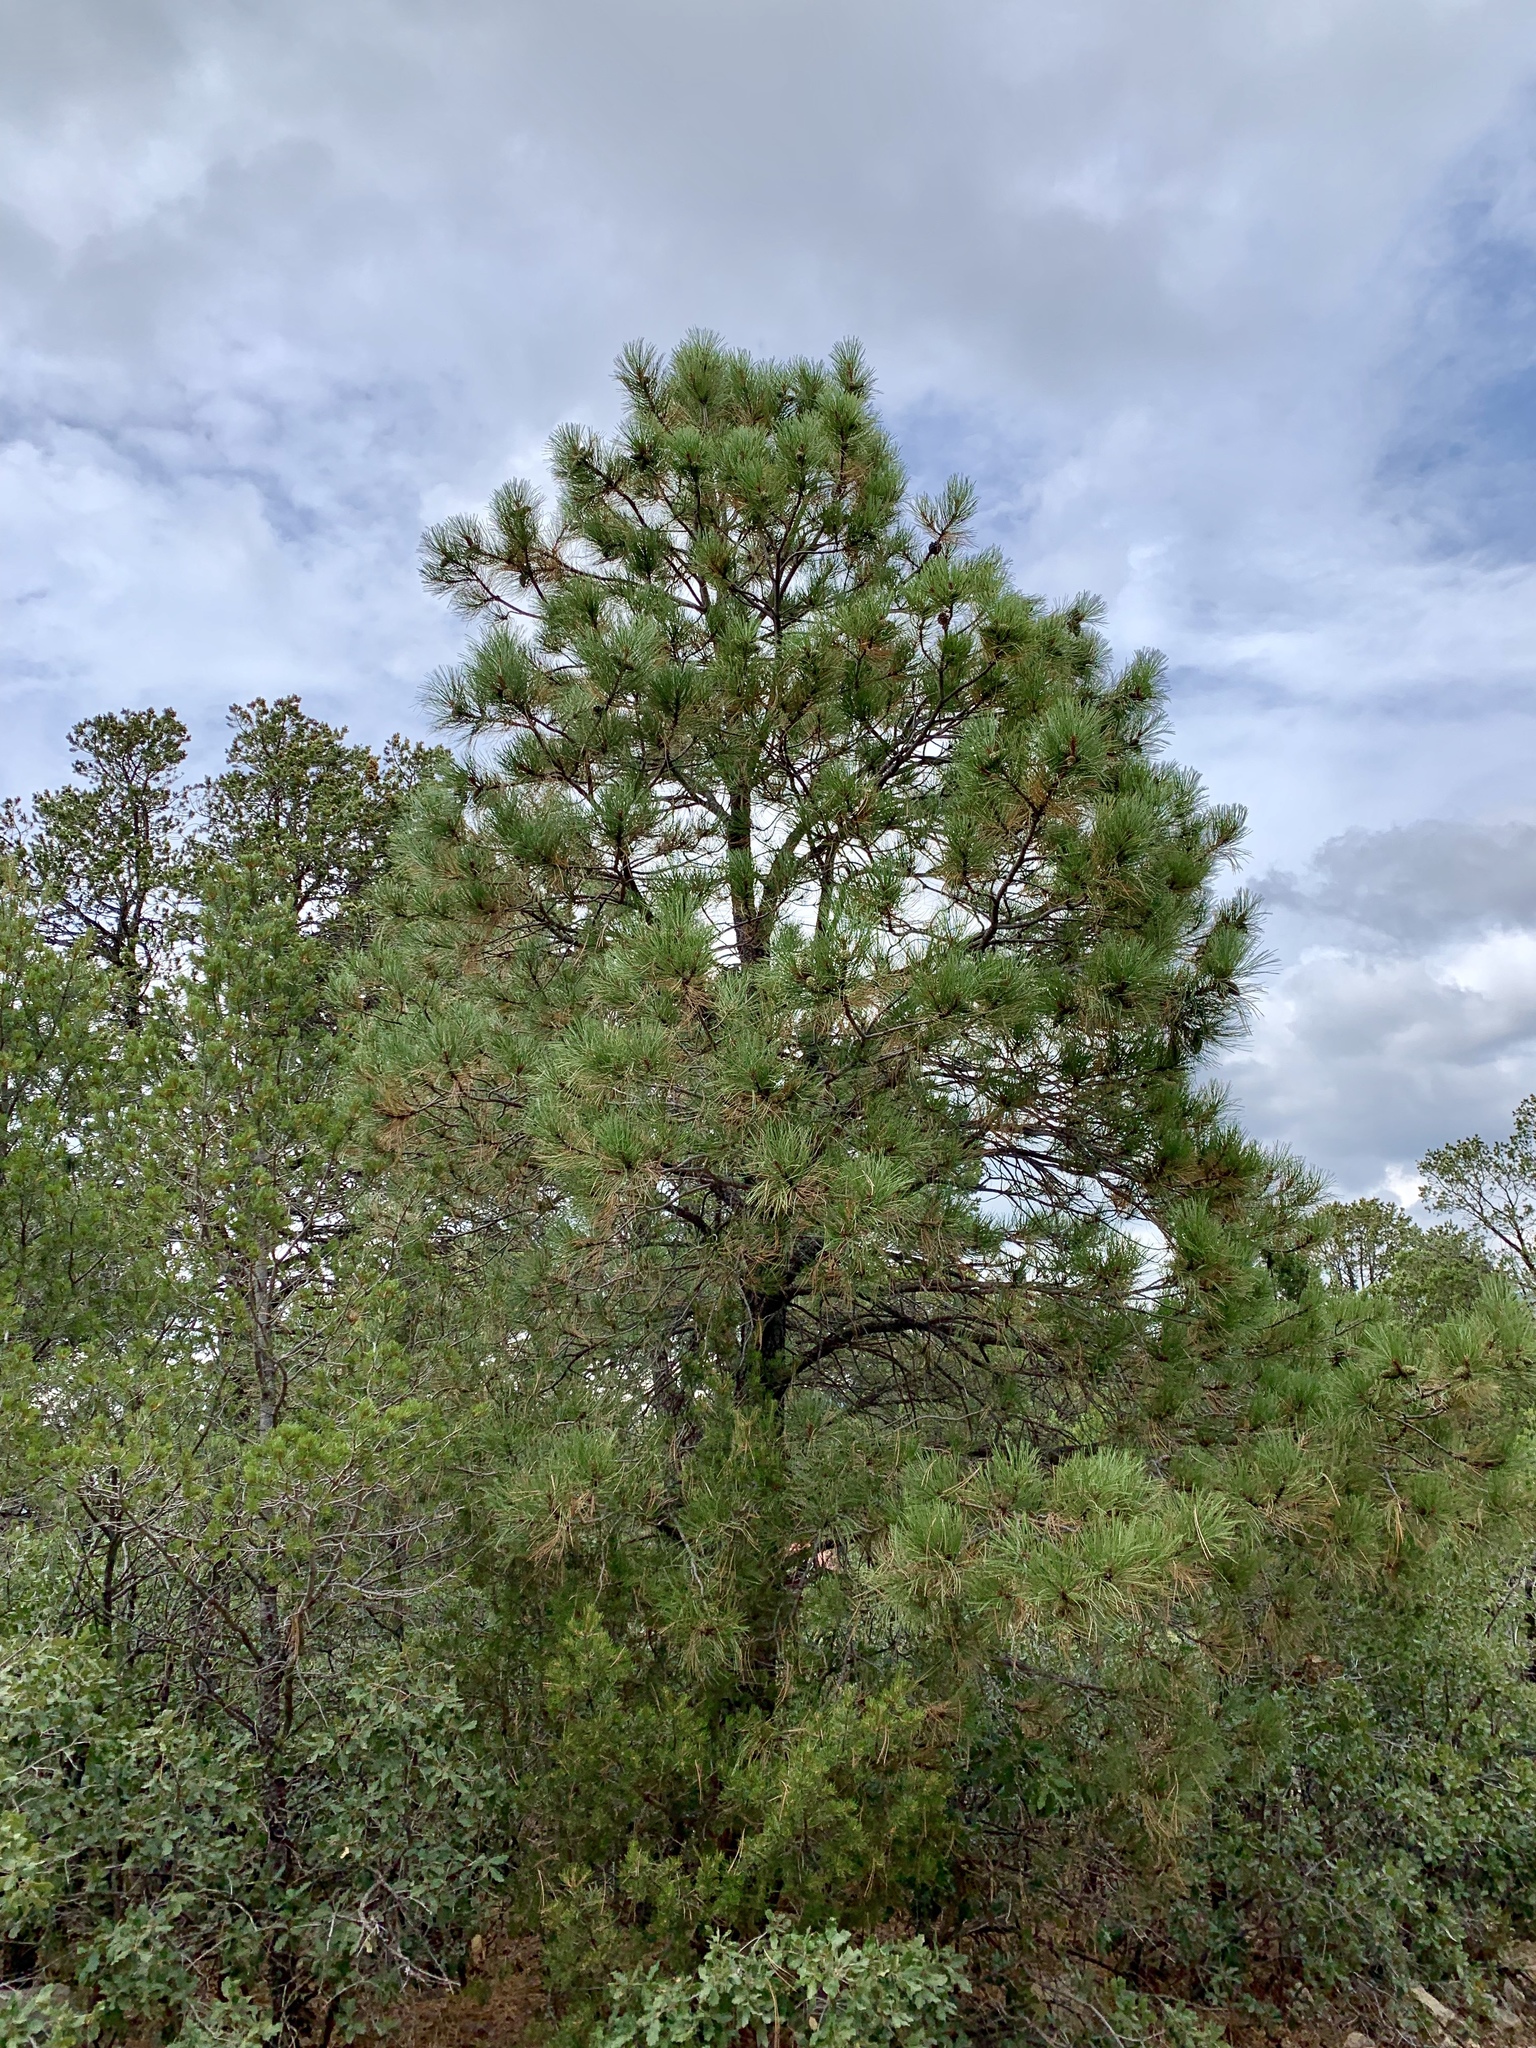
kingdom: Plantae
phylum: Tracheophyta
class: Pinopsida
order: Pinales
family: Pinaceae
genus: Pinus
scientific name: Pinus ponderosa
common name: Western yellow-pine
